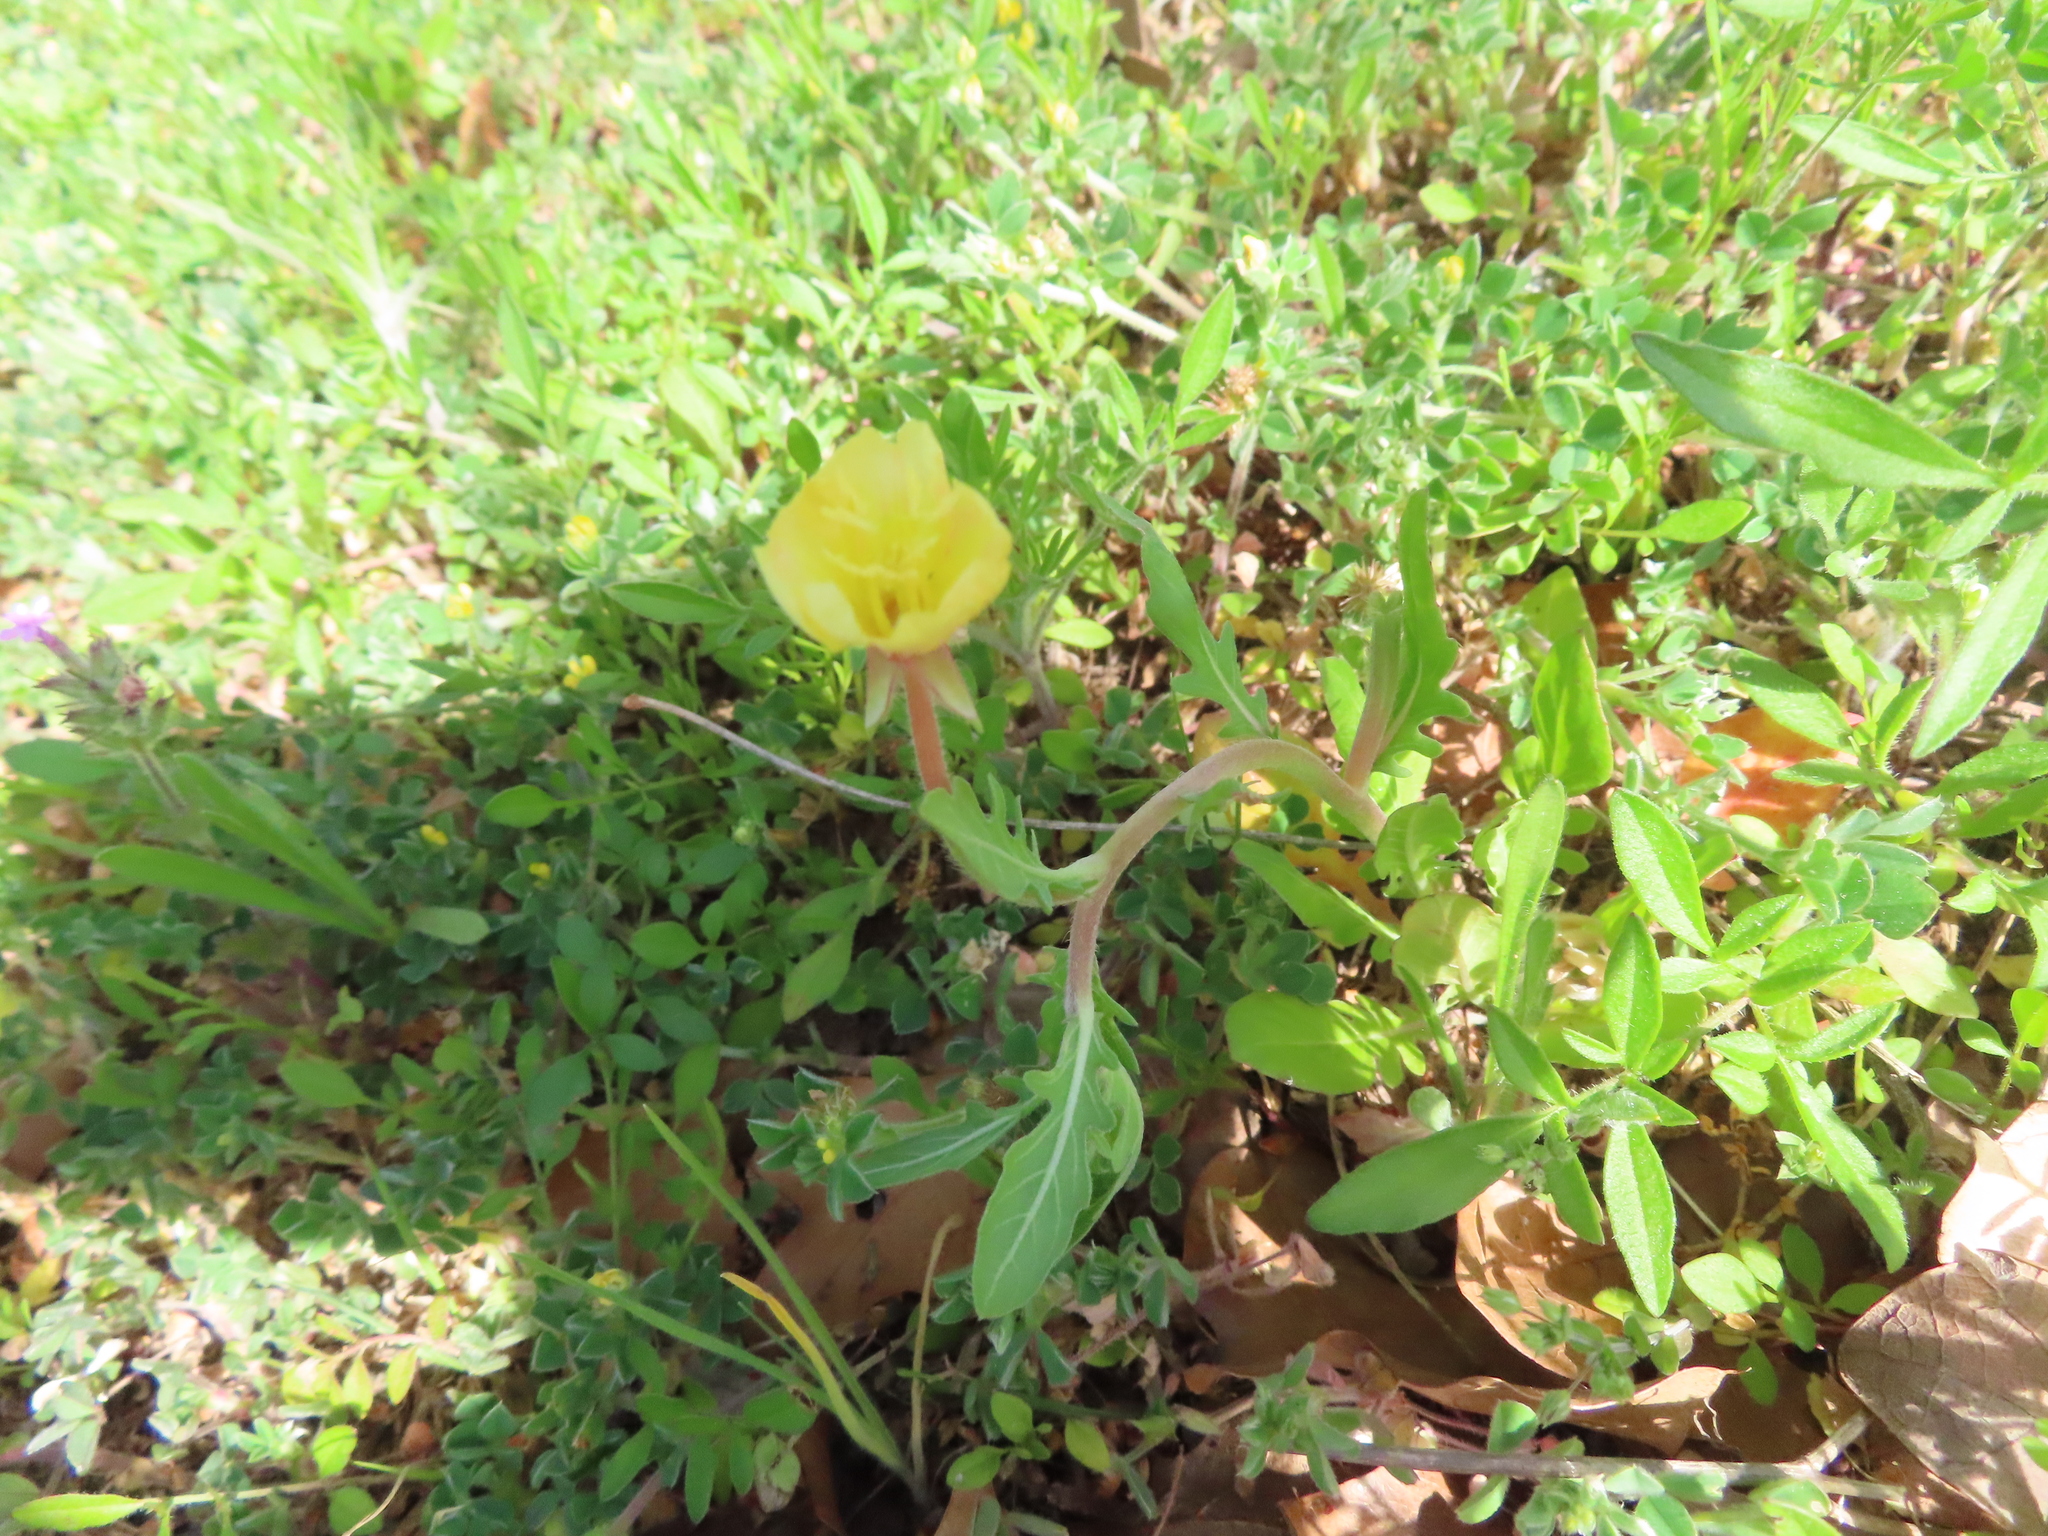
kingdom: Plantae
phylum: Tracheophyta
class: Magnoliopsida
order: Myrtales
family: Onagraceae
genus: Oenothera
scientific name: Oenothera laciniata
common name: Cut-leaved evening-primrose
